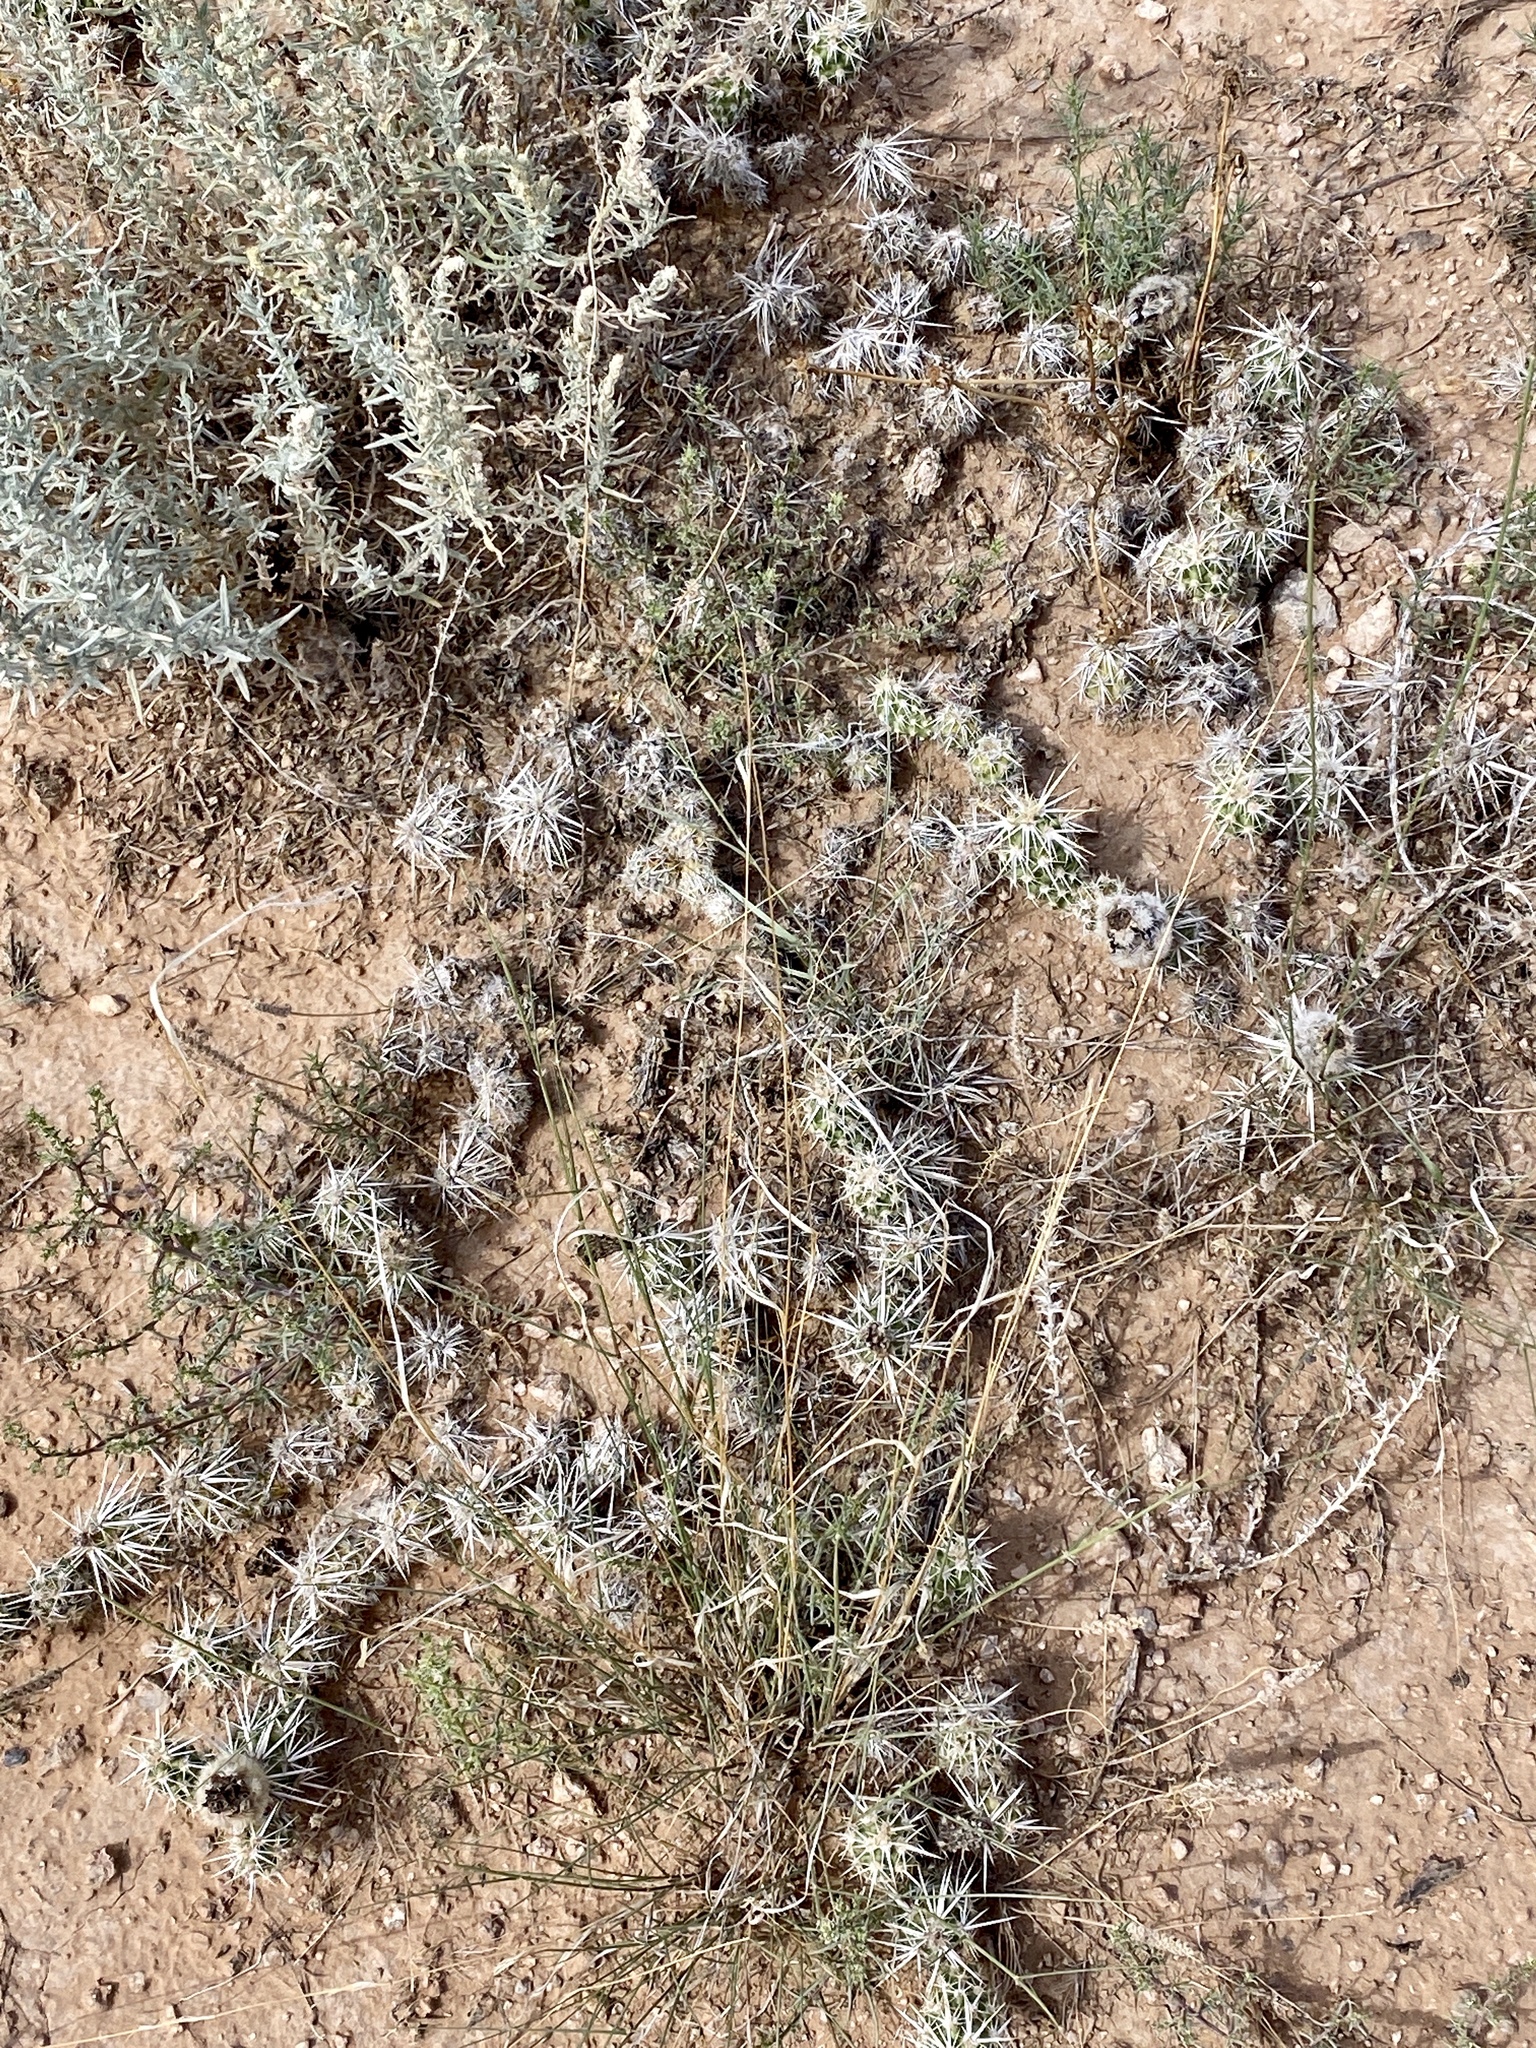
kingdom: Plantae
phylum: Tracheophyta
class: Magnoliopsida
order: Caryophyllales
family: Cactaceae
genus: Grusonia
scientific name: Grusonia clavata
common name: Club cholla
